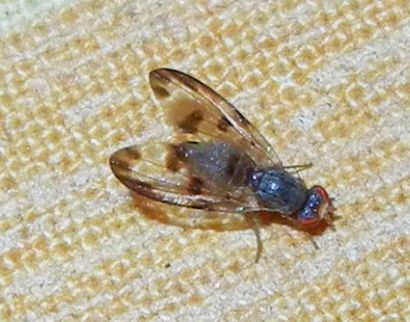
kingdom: Animalia
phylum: Arthropoda
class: Insecta
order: Diptera
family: Pallopteridae
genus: Palloptera
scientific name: Palloptera umbellatarum
